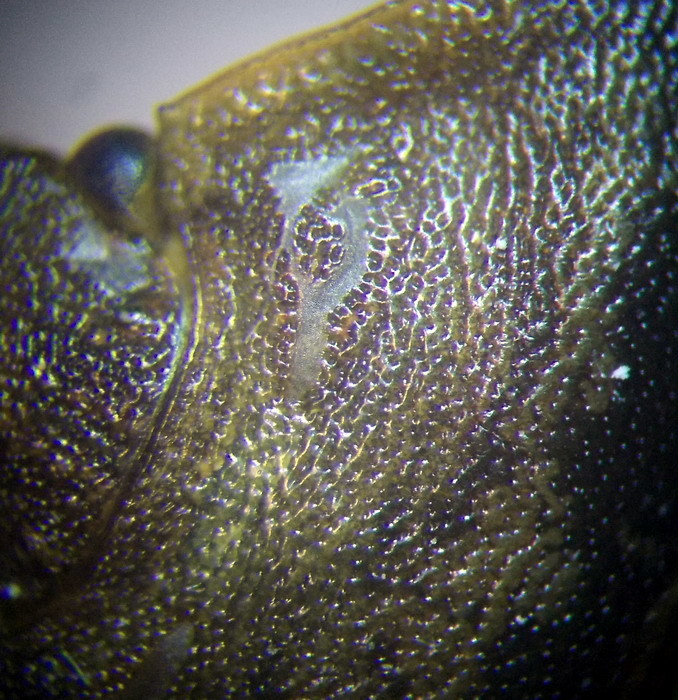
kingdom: Animalia
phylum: Arthropoda
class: Insecta
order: Hemiptera
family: Pentatomidae
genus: Chlorochroa
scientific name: Chlorochroa pinicola
